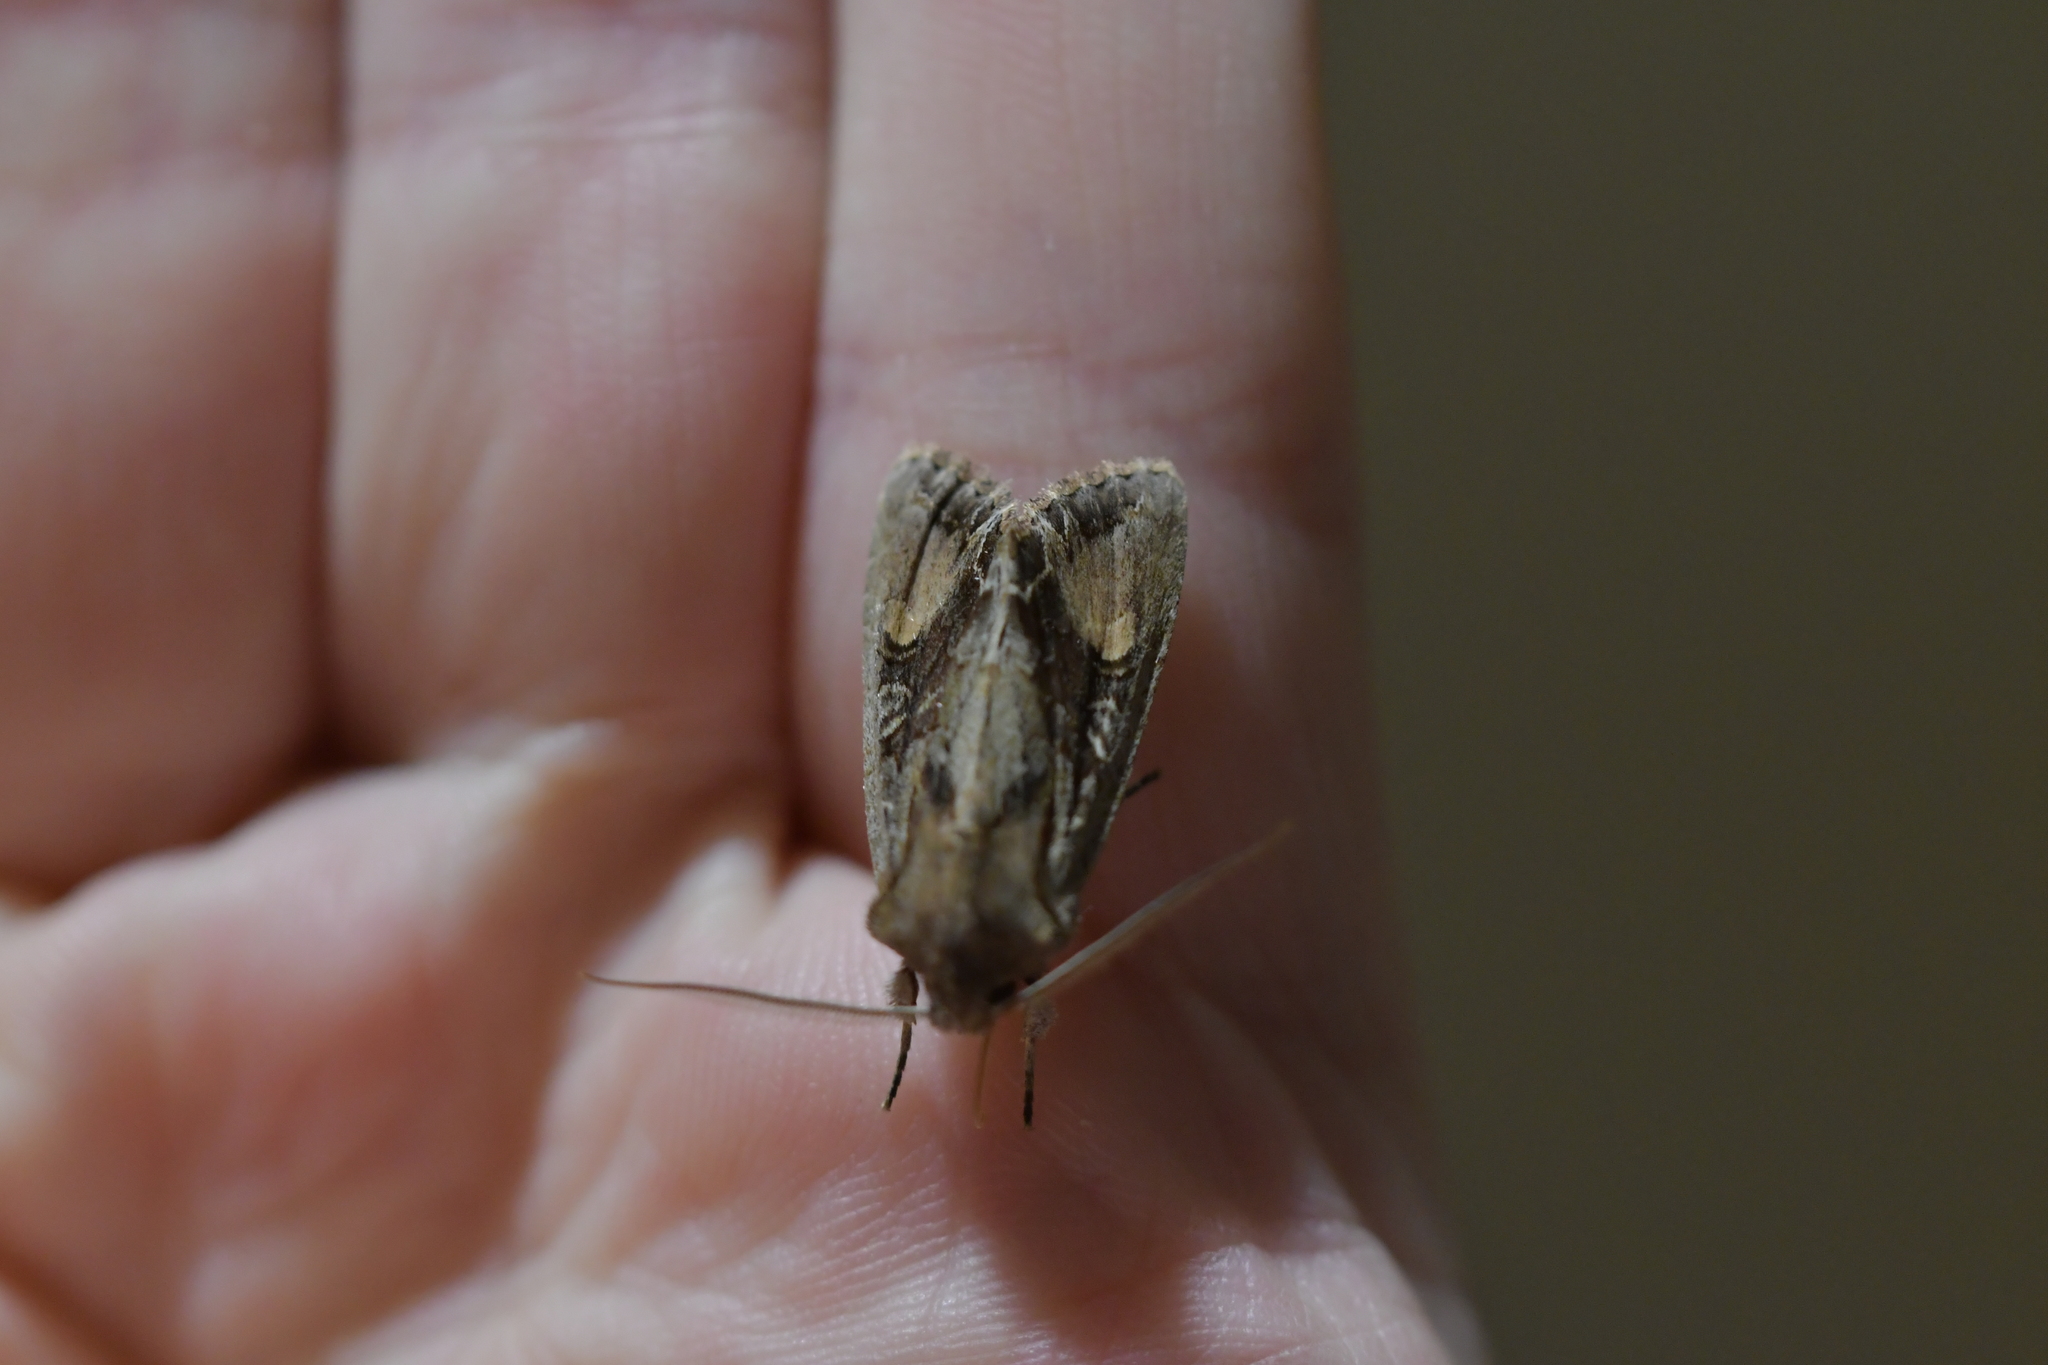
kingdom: Animalia
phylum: Arthropoda
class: Insecta
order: Lepidoptera
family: Noctuidae
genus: Ichneutica
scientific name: Ichneutica
